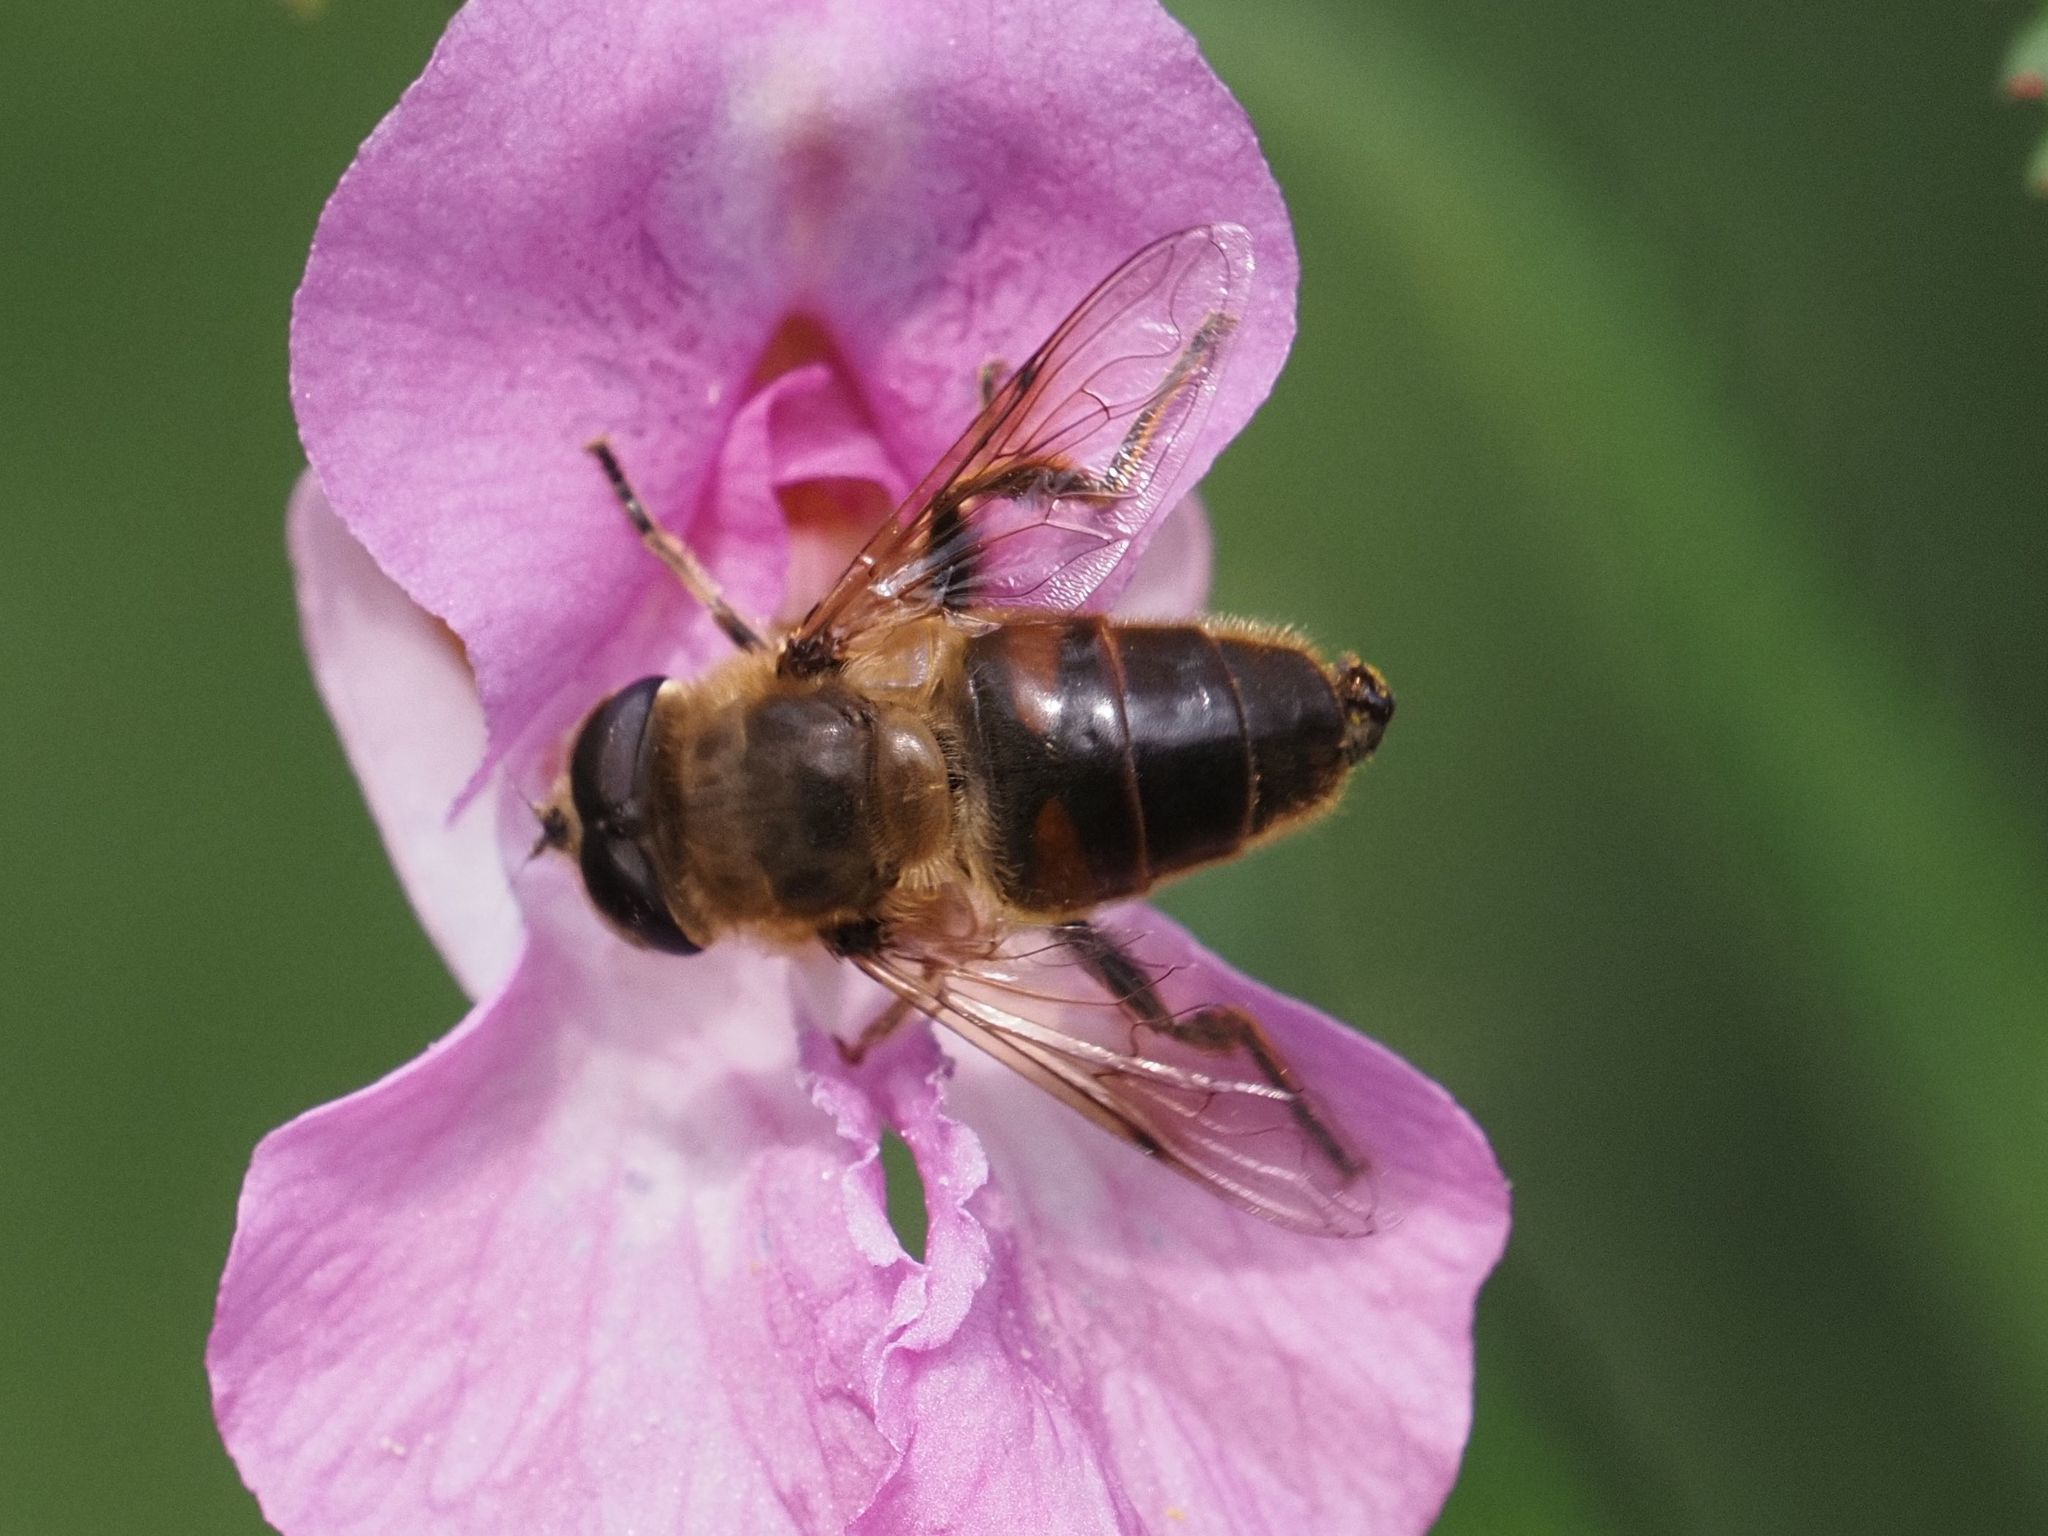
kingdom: Animalia
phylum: Arthropoda
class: Insecta
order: Diptera
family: Syrphidae
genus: Eristalis
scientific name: Eristalis tenax
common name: Drone fly
